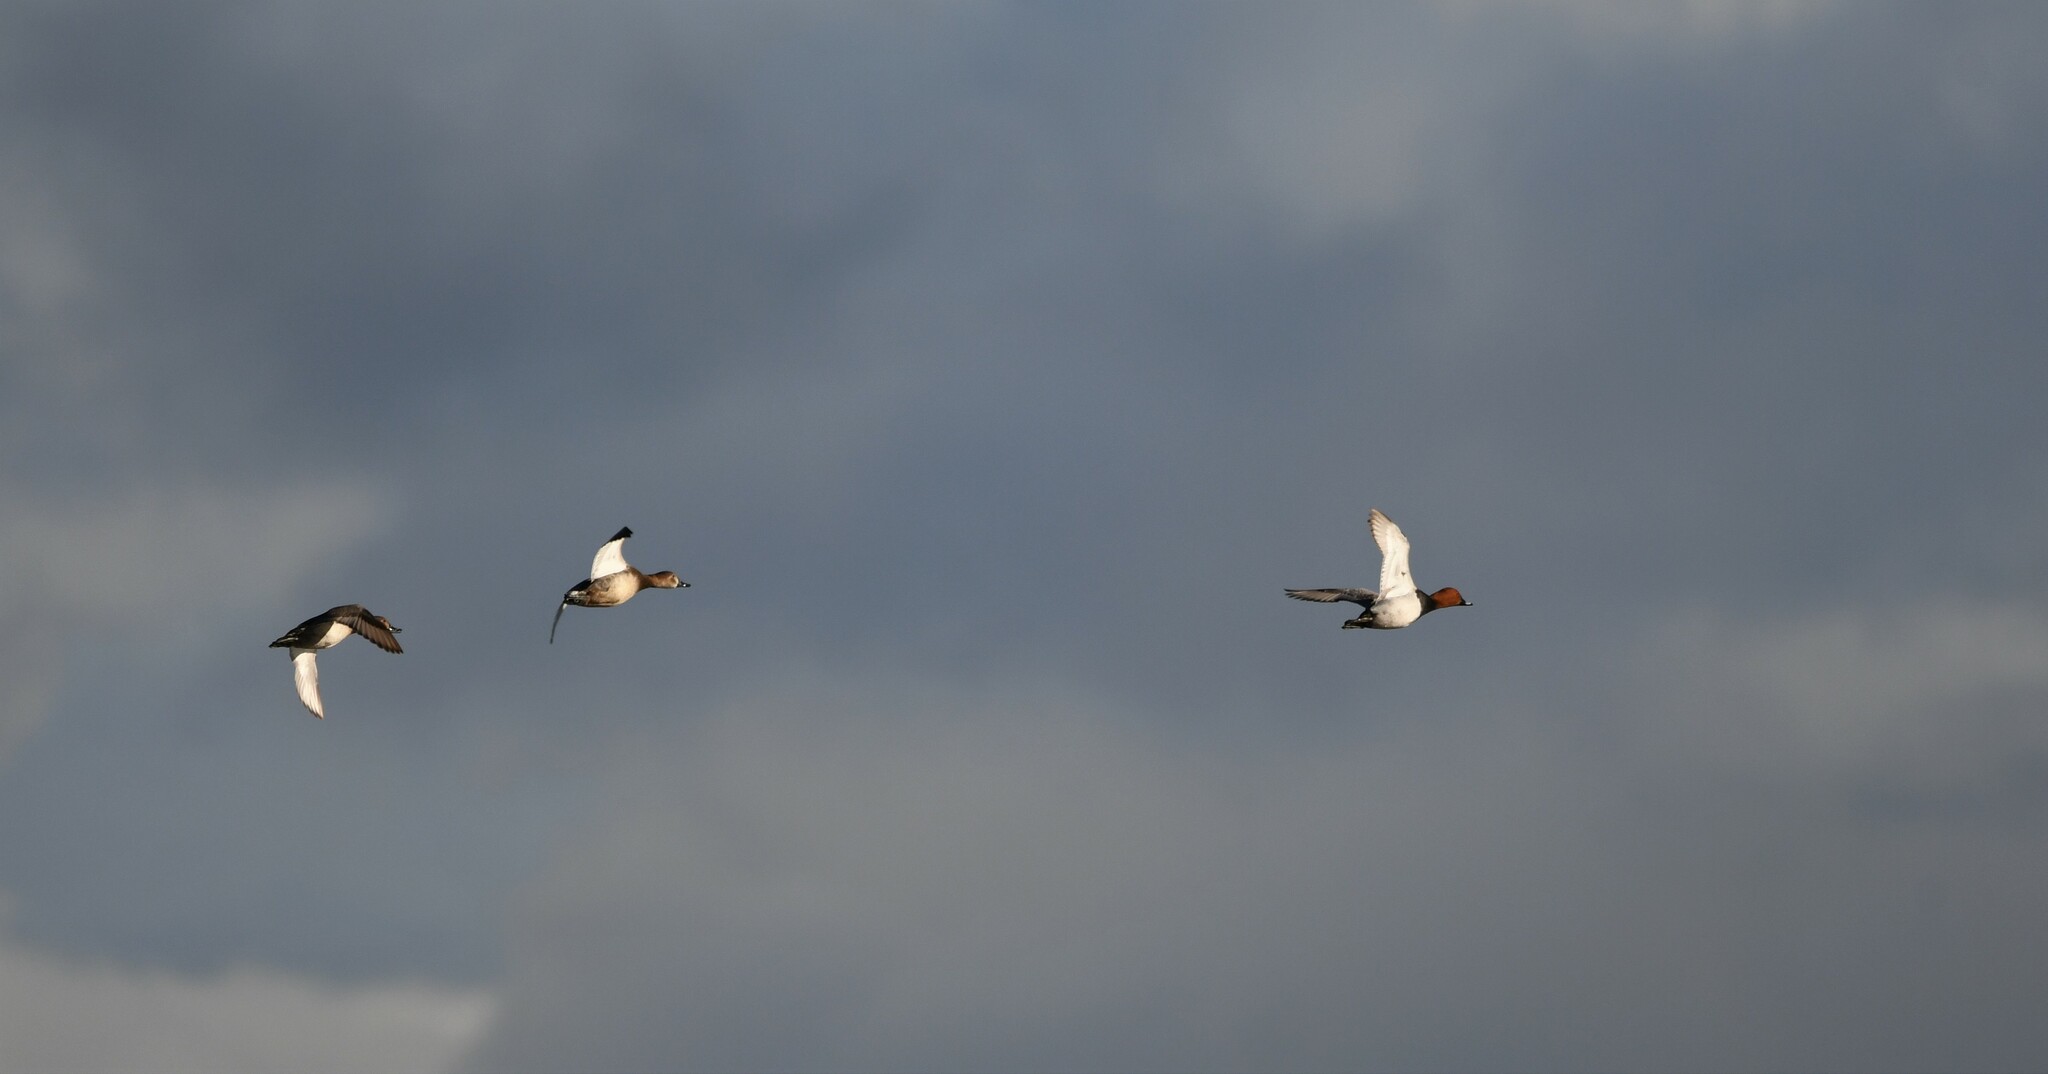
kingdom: Animalia
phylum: Chordata
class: Aves
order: Anseriformes
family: Anatidae
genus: Aythya
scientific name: Aythya ferina
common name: Common pochard
